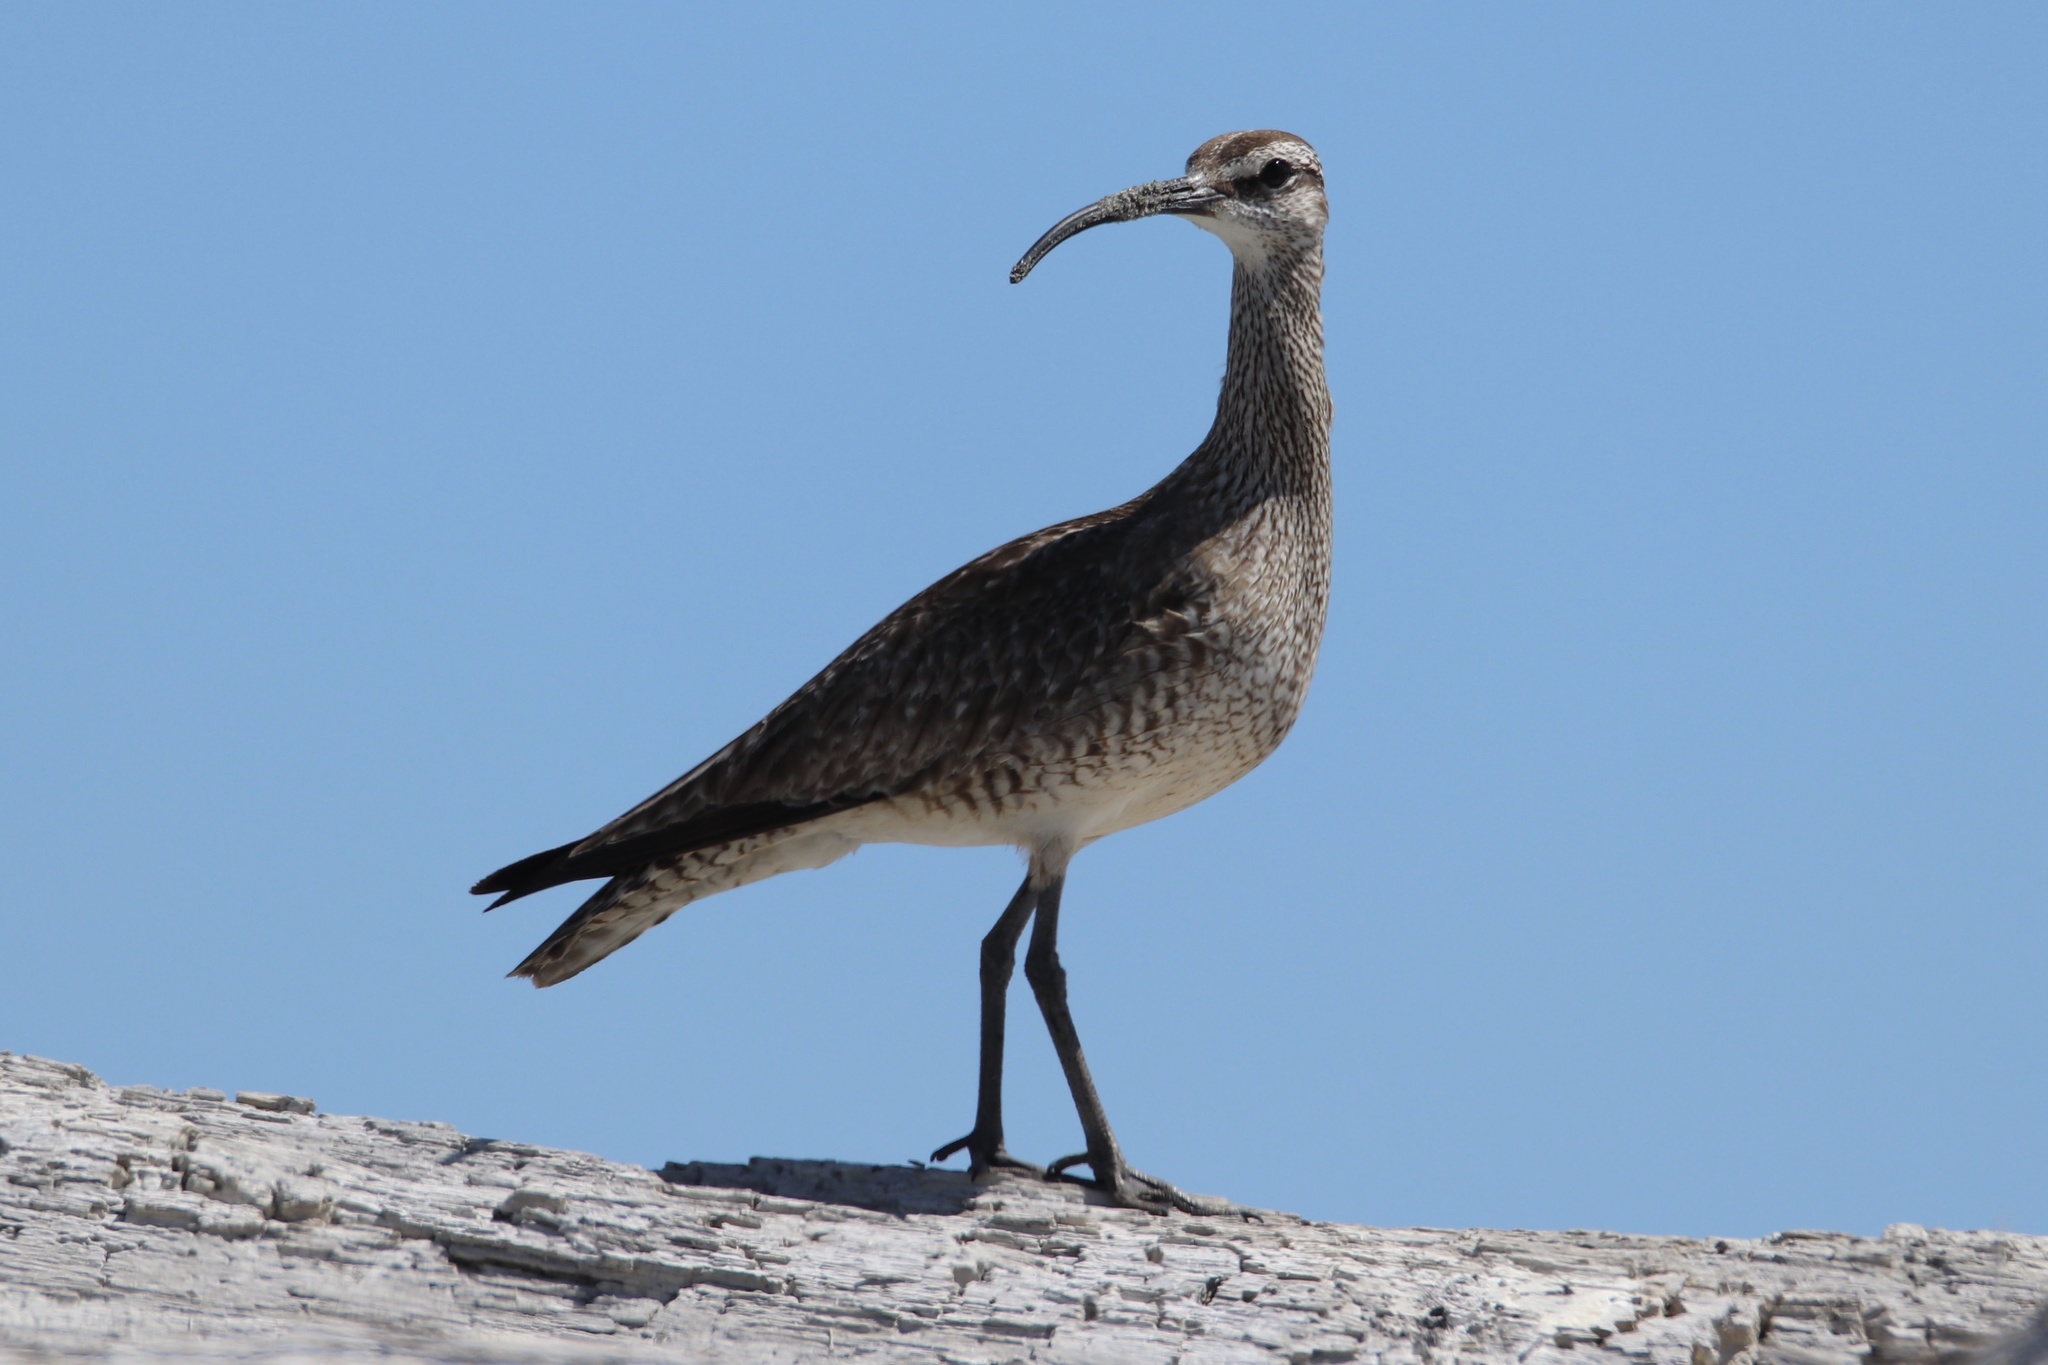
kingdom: Animalia
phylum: Chordata
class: Aves
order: Charadriiformes
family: Scolopacidae
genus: Numenius
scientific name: Numenius phaeopus
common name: Whimbrel
